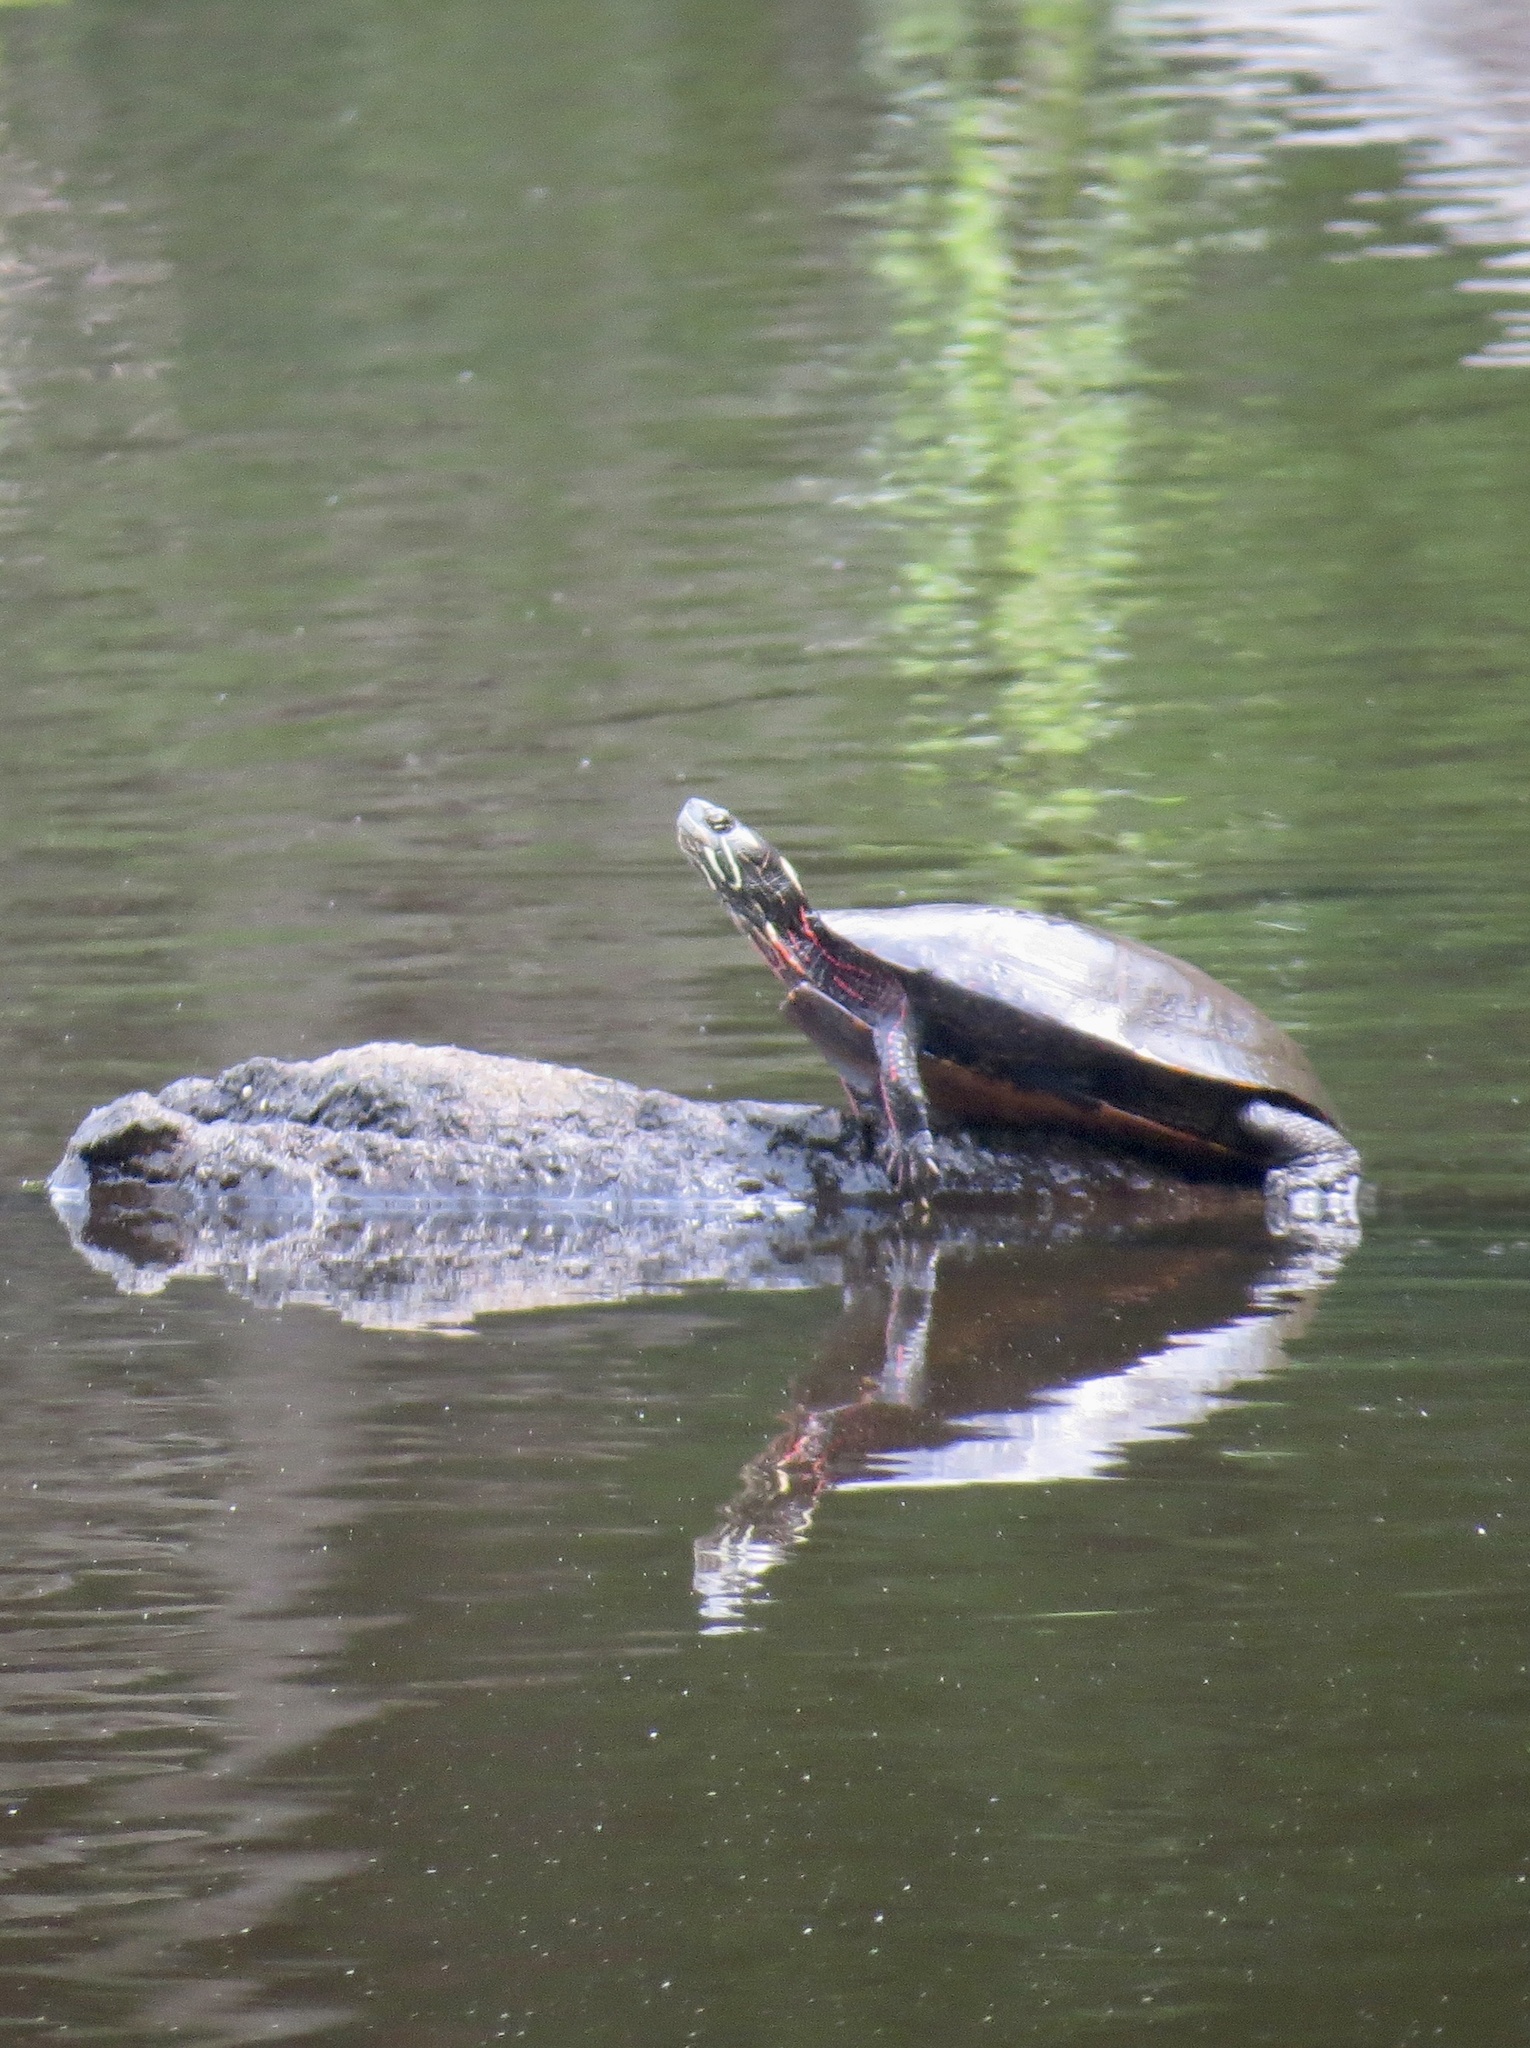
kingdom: Animalia
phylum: Chordata
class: Testudines
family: Emydidae
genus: Chrysemys
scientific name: Chrysemys picta
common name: Painted turtle
